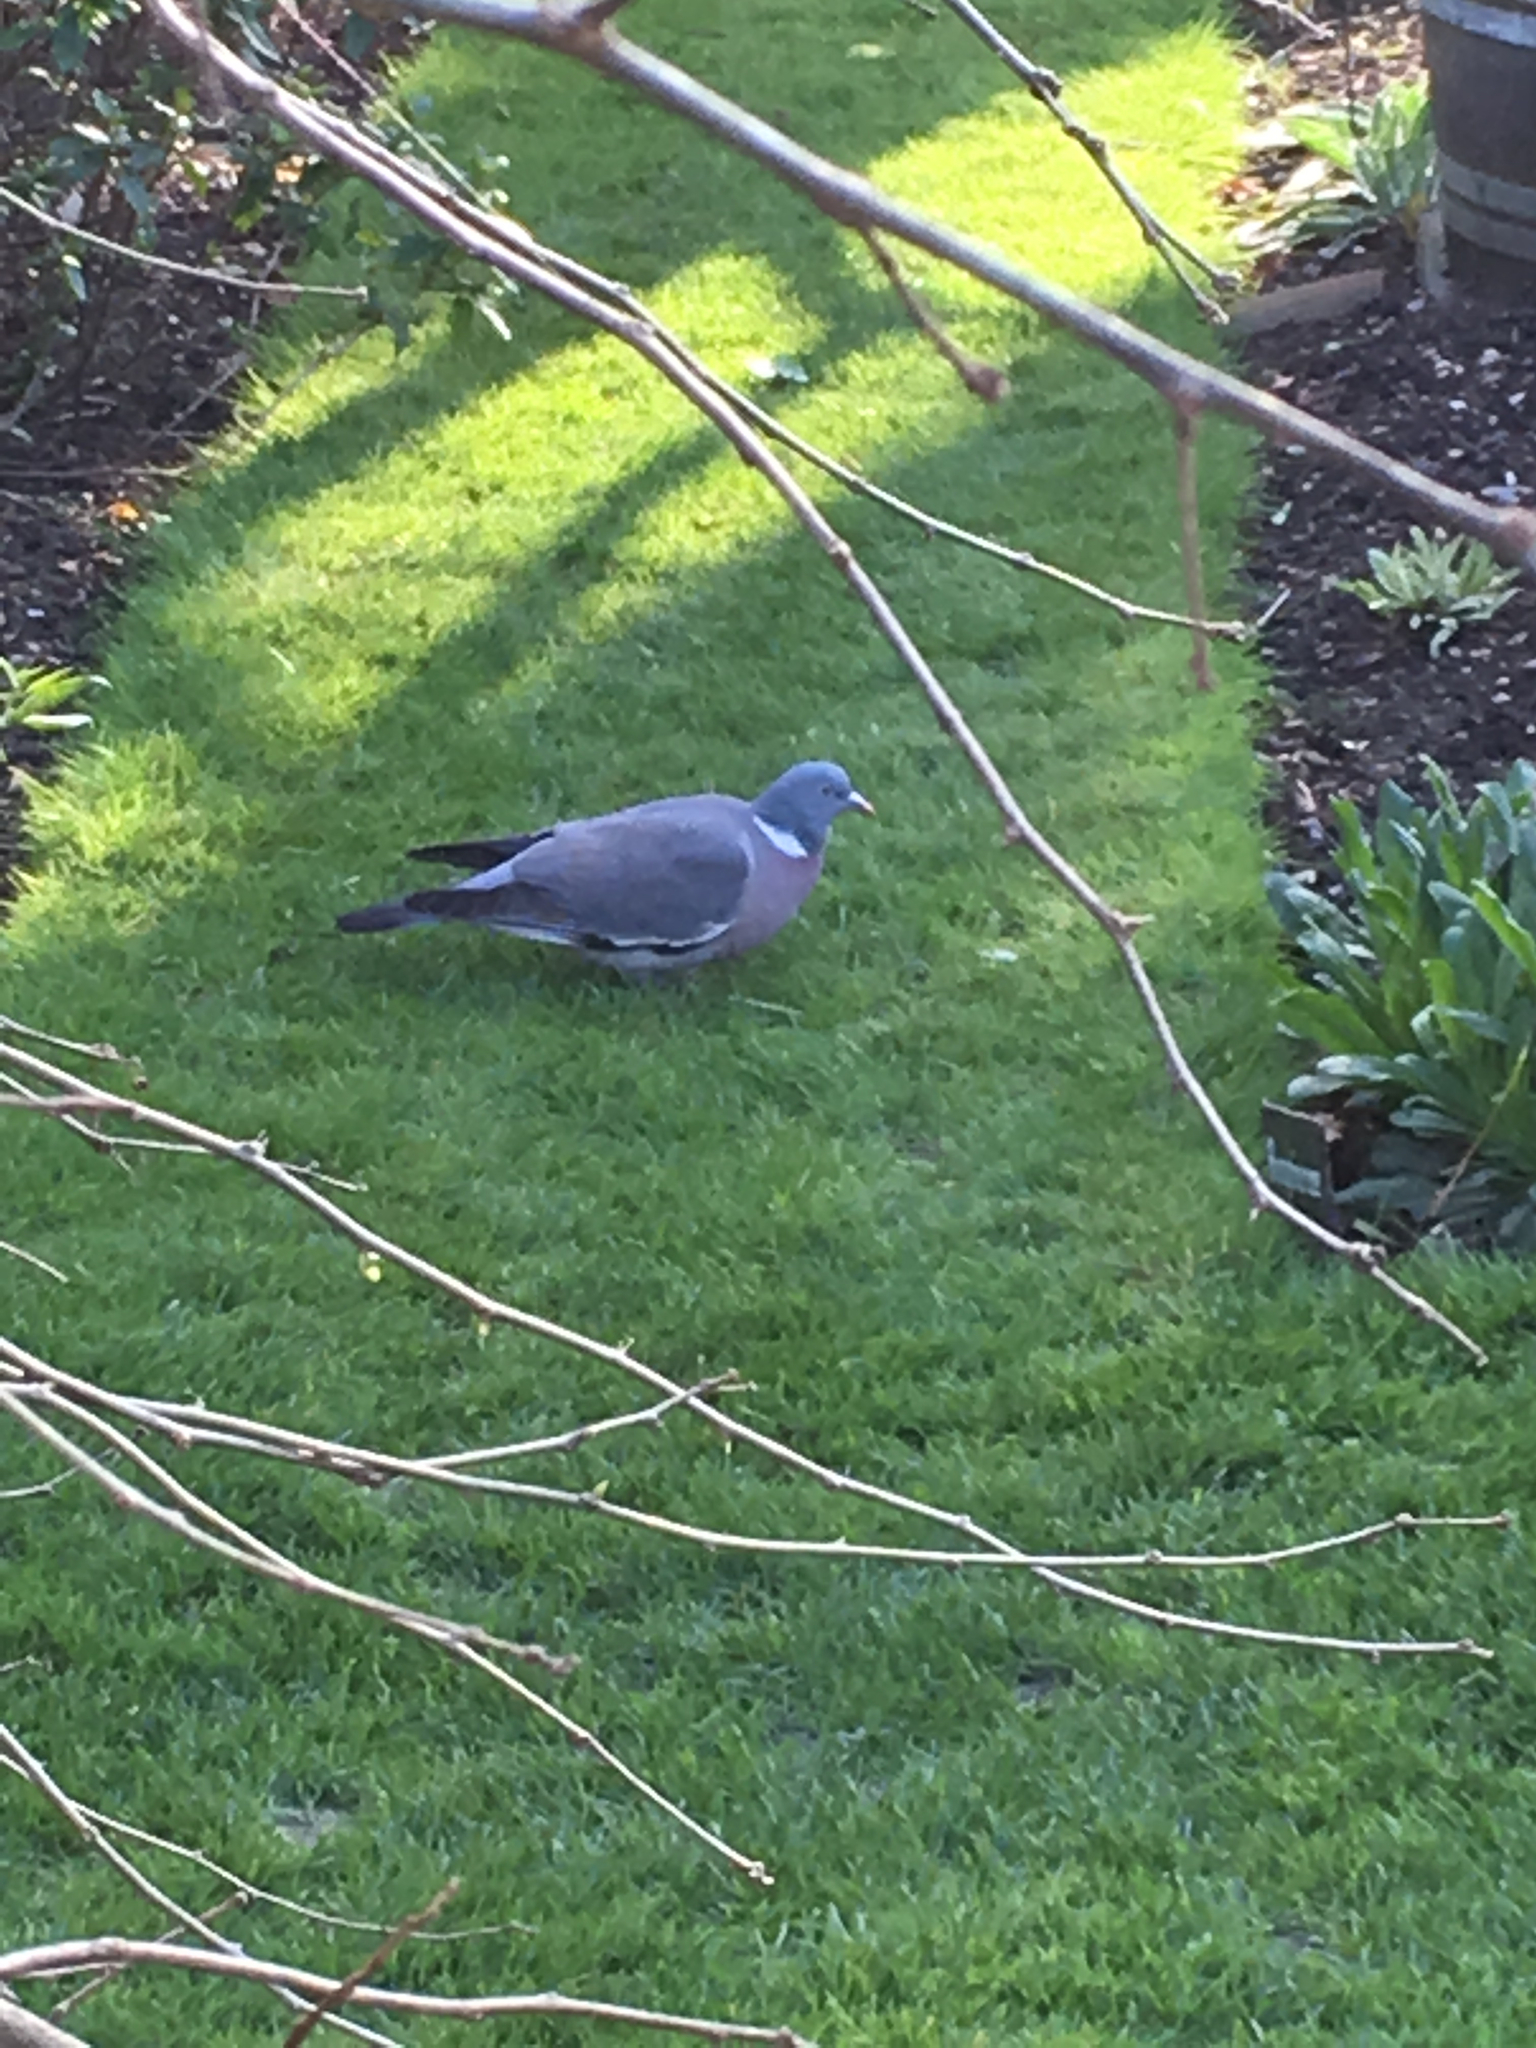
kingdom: Animalia
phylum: Chordata
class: Aves
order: Columbiformes
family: Columbidae
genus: Columba
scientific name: Columba palumbus
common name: Common wood pigeon
